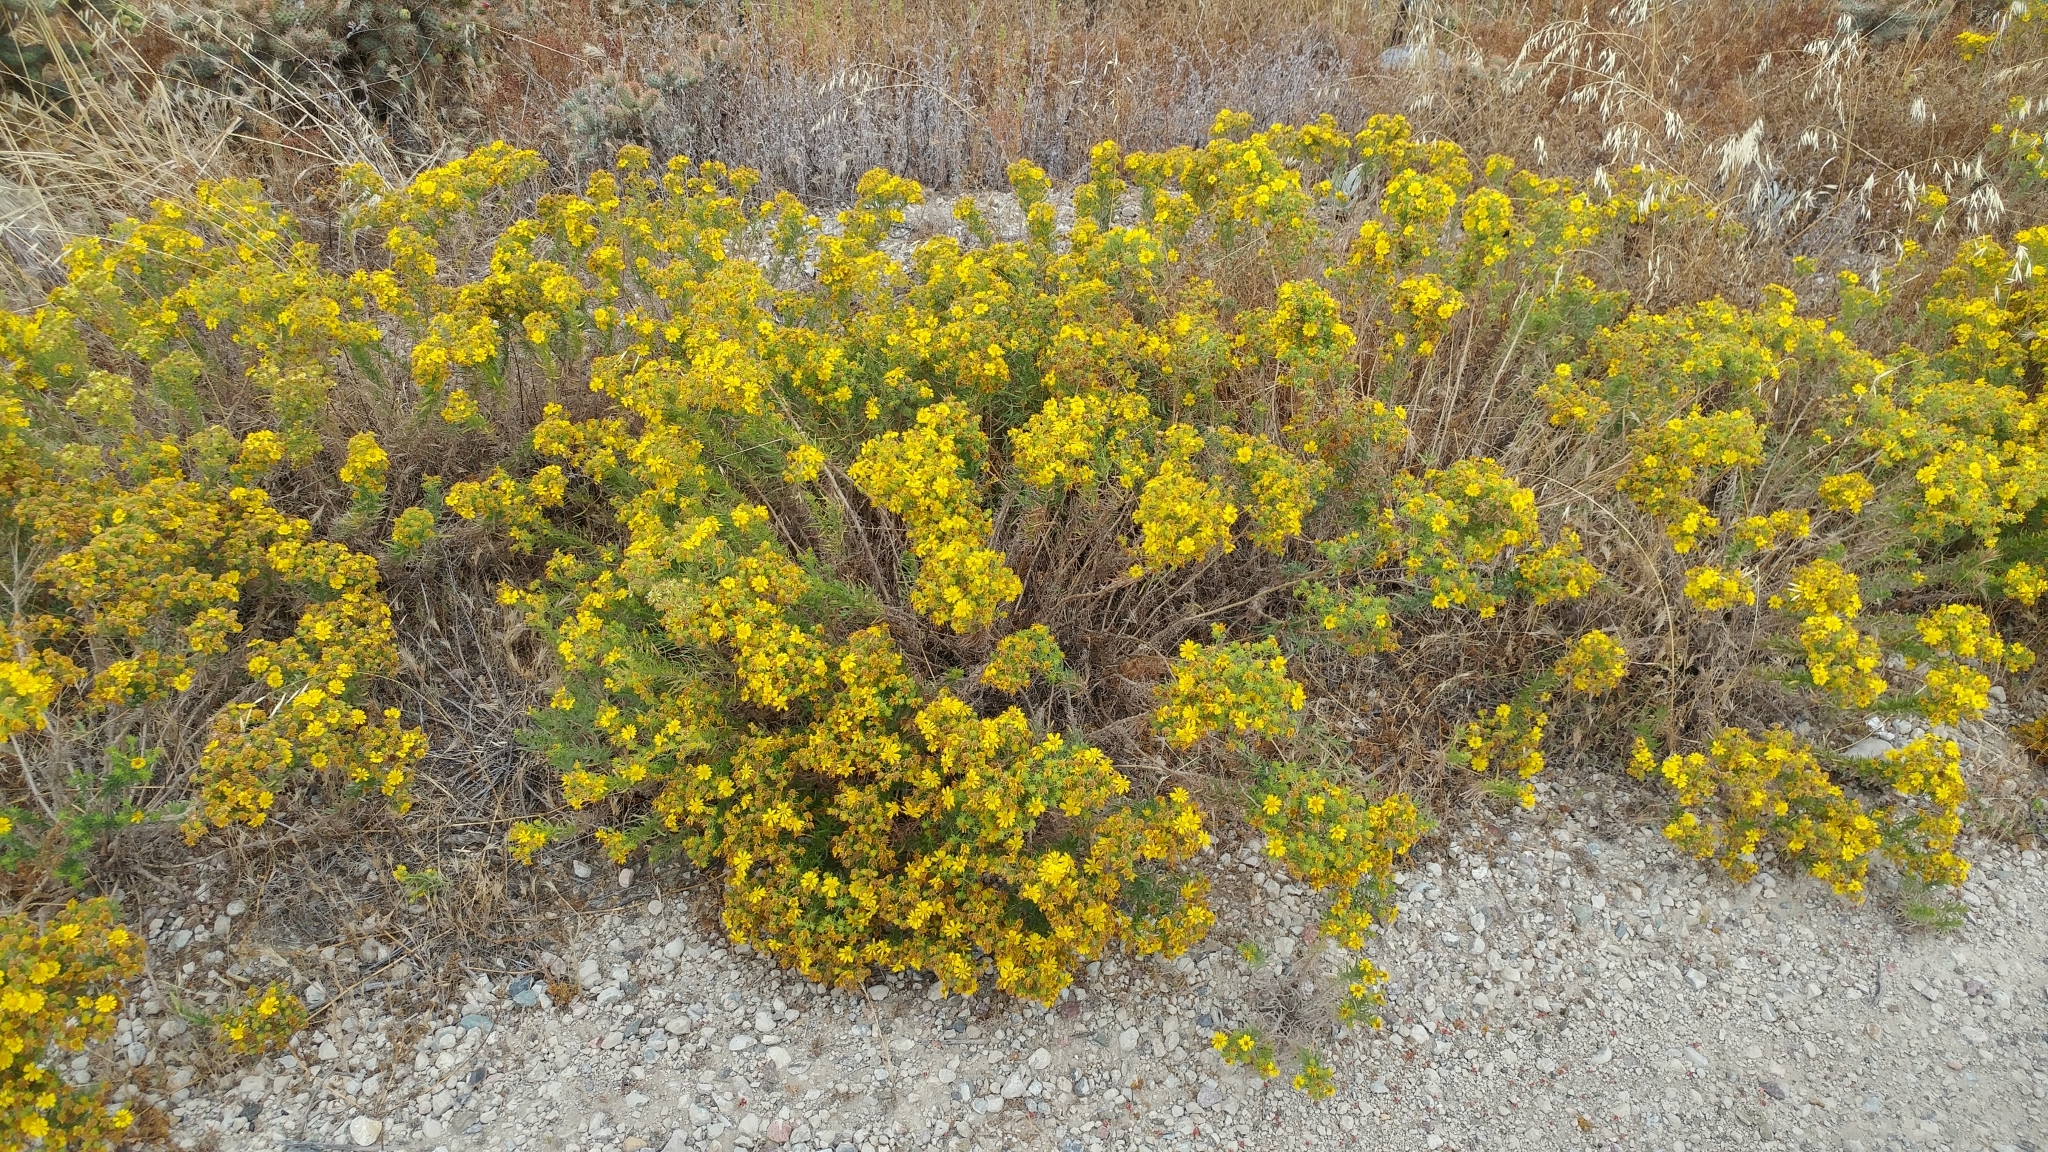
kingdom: Plantae
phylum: Tracheophyta
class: Magnoliopsida
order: Asterales
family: Asteraceae
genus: Deinandra
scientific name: Deinandra clementina
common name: Island tarplant
